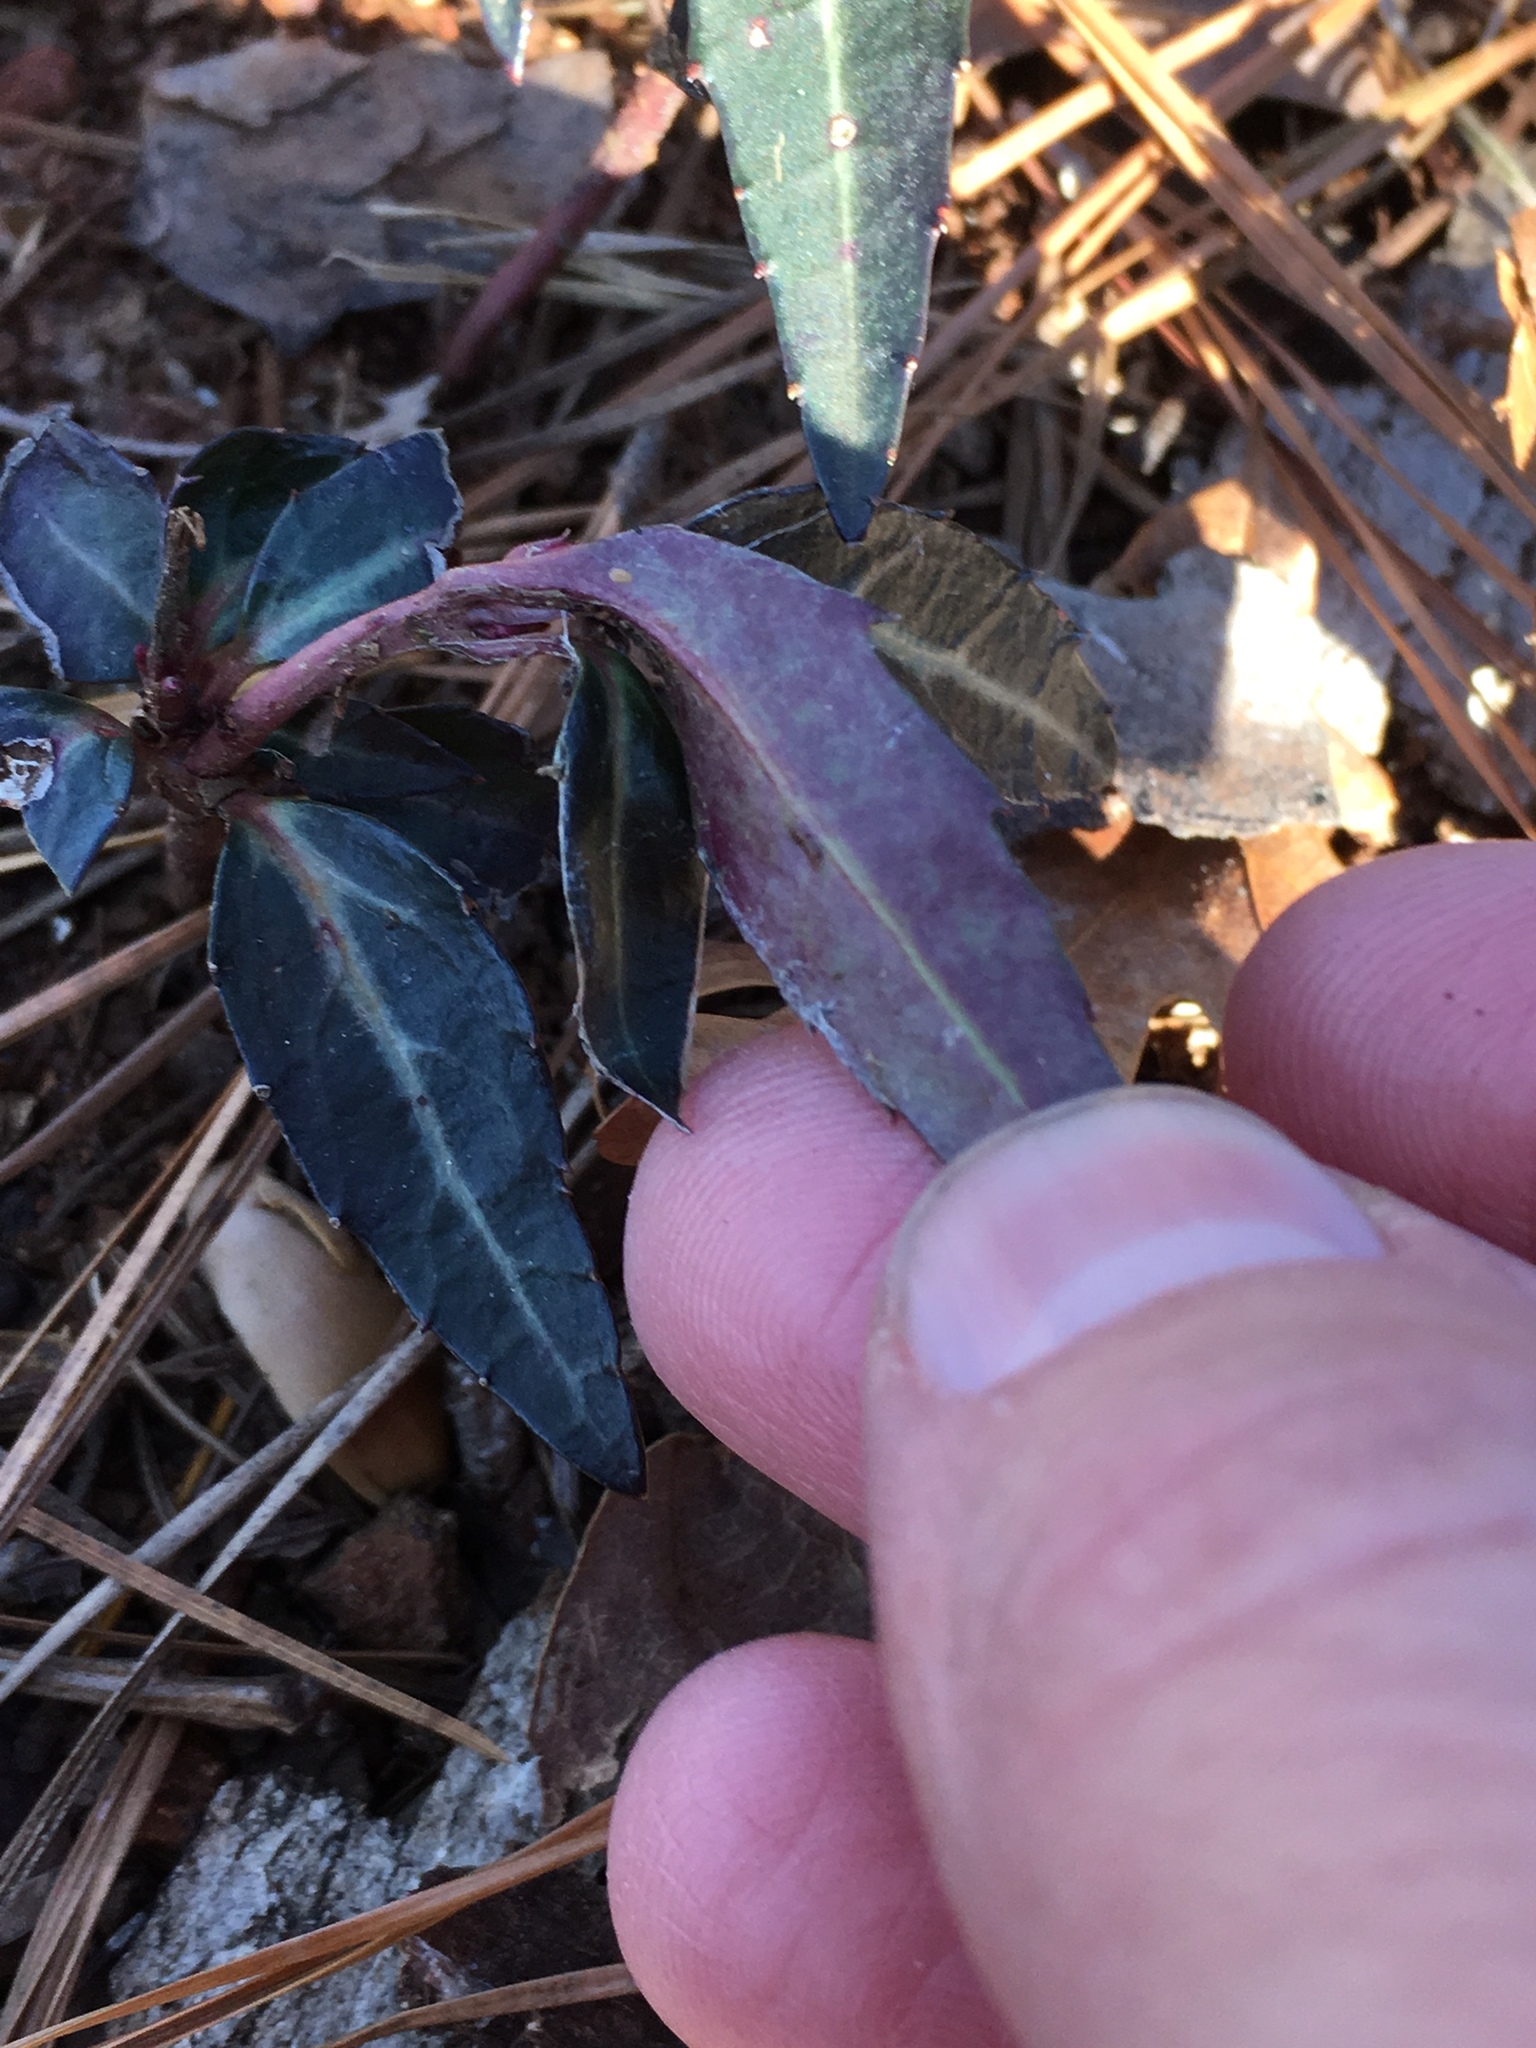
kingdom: Plantae
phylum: Tracheophyta
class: Magnoliopsida
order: Ericales
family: Ericaceae
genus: Chimaphila
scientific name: Chimaphila maculata
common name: Spotted pipsissewa
